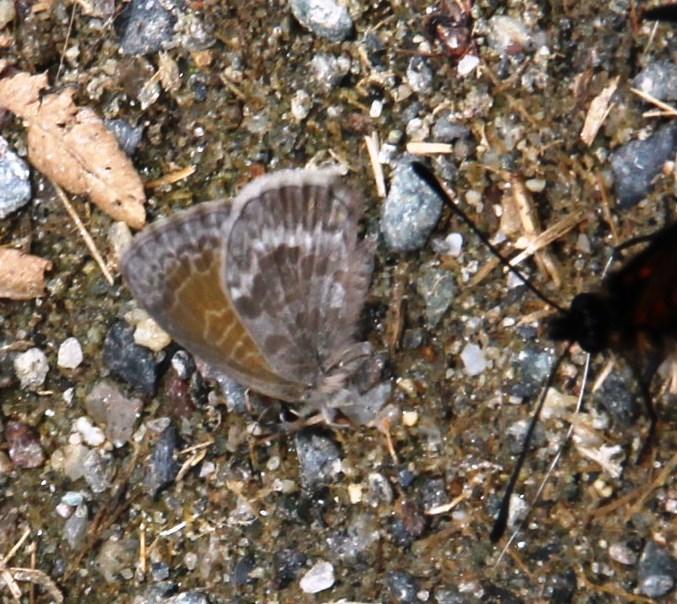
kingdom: Animalia
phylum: Arthropoda
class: Insecta
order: Lepidoptera
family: Lycaenidae
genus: Leptotes
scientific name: Leptotes callanga
